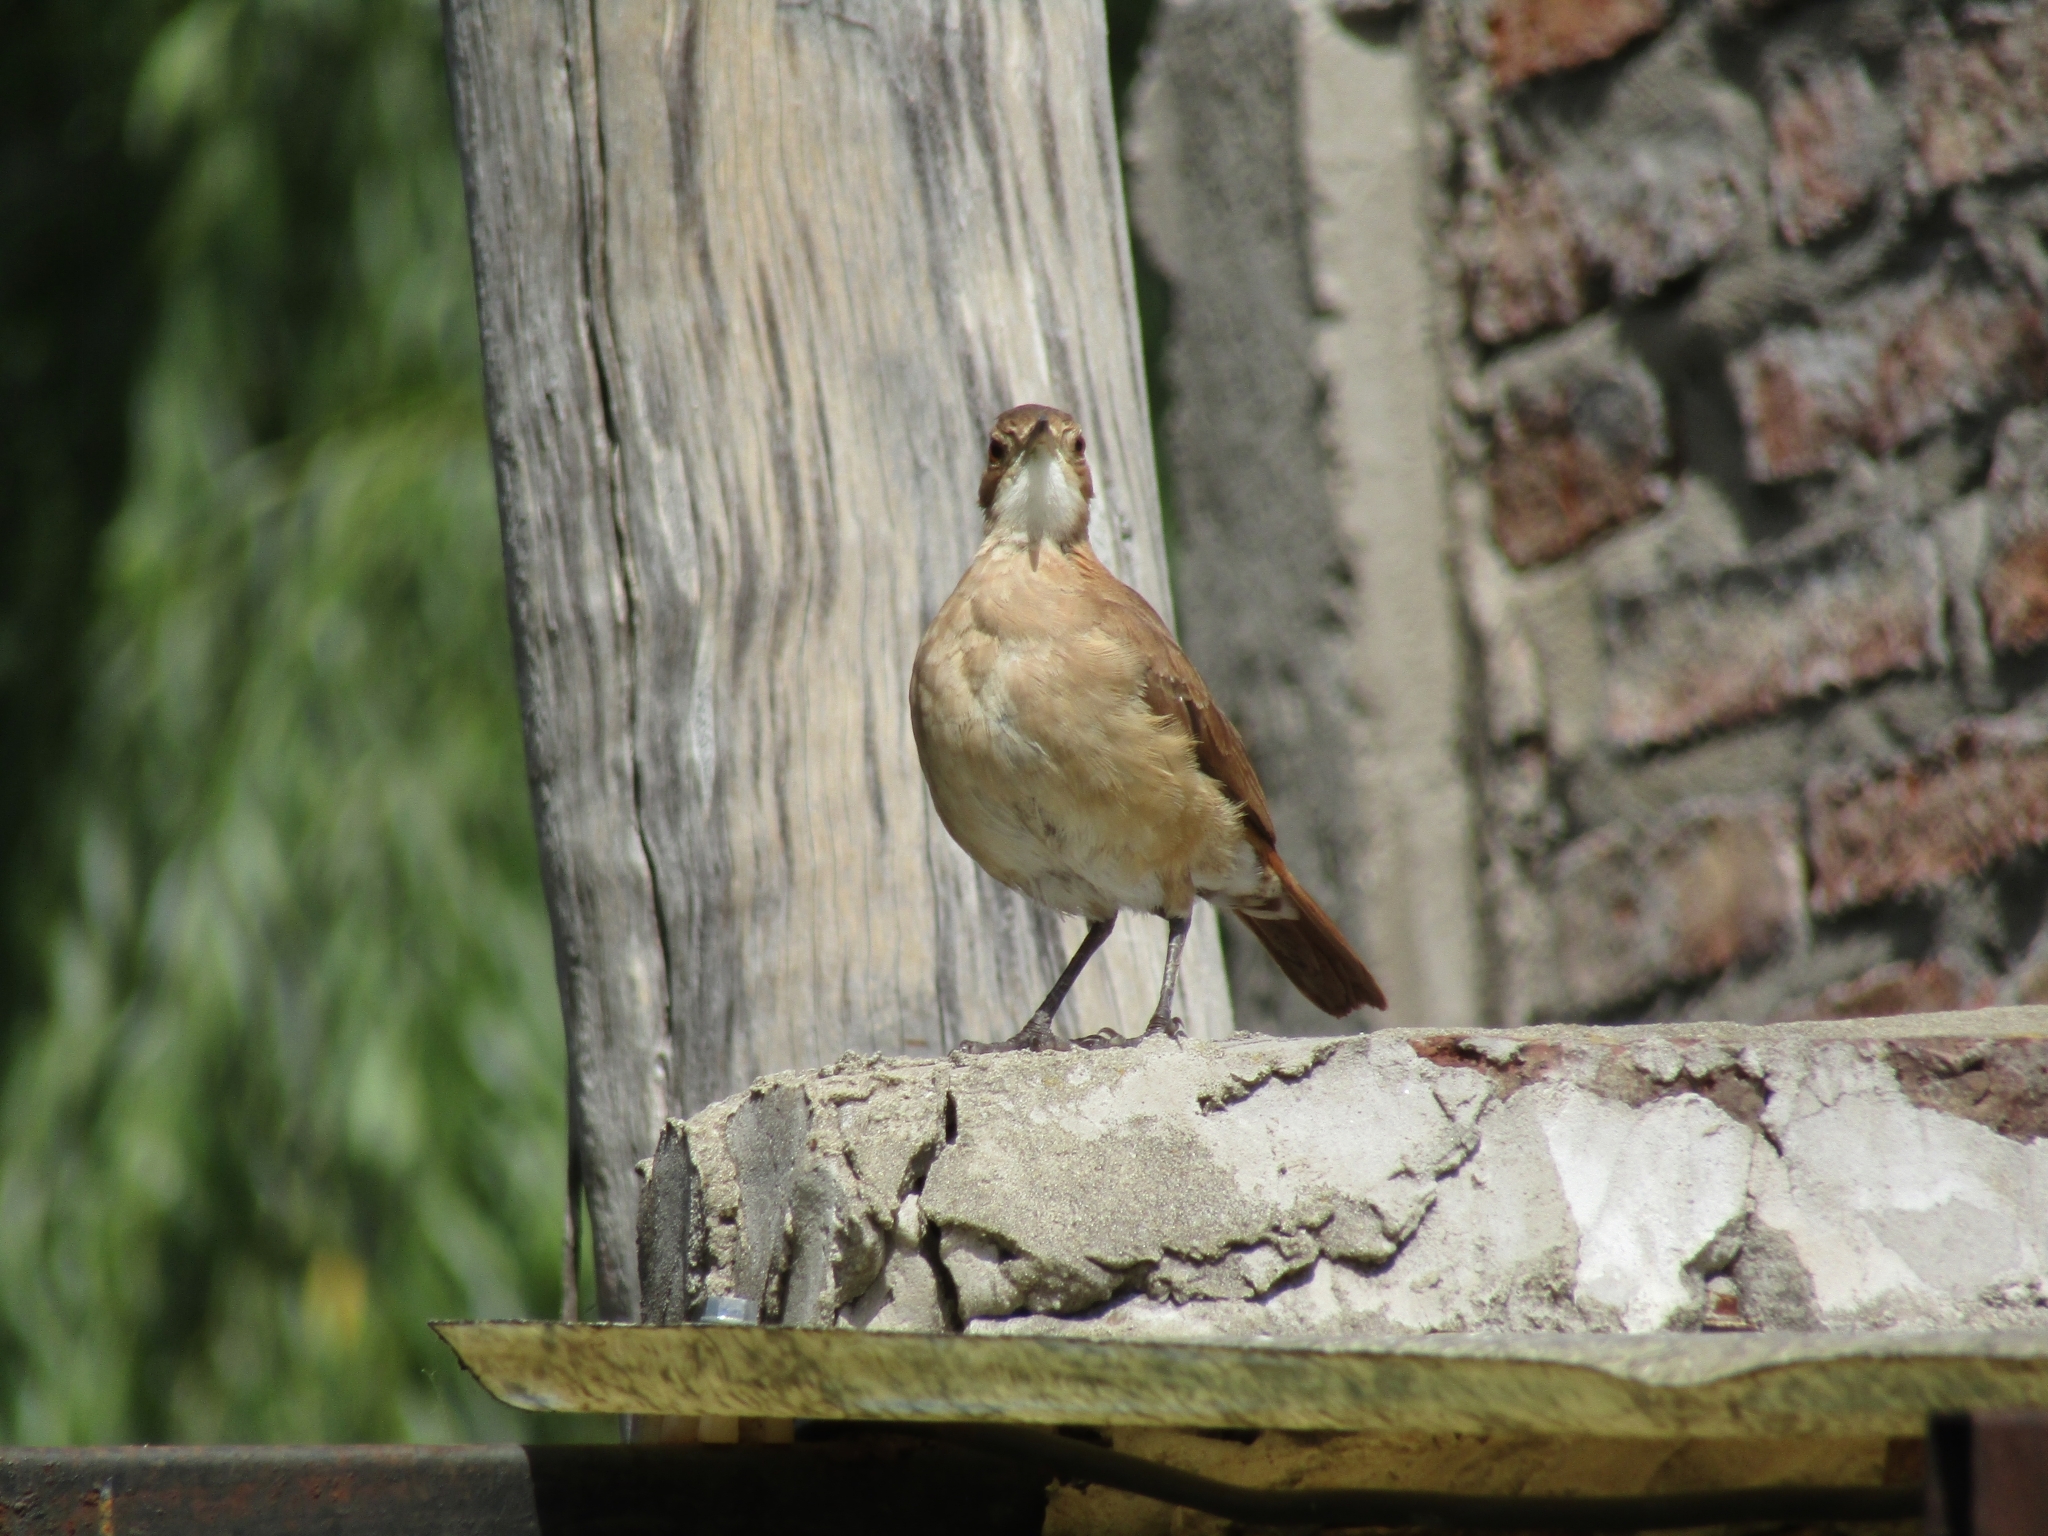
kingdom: Animalia
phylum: Chordata
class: Aves
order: Passeriformes
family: Furnariidae
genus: Furnarius
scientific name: Furnarius rufus
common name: Rufous hornero
